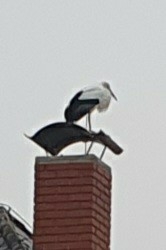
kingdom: Animalia
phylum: Chordata
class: Aves
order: Ciconiiformes
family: Ciconiidae
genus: Ciconia
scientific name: Ciconia ciconia
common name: White stork
